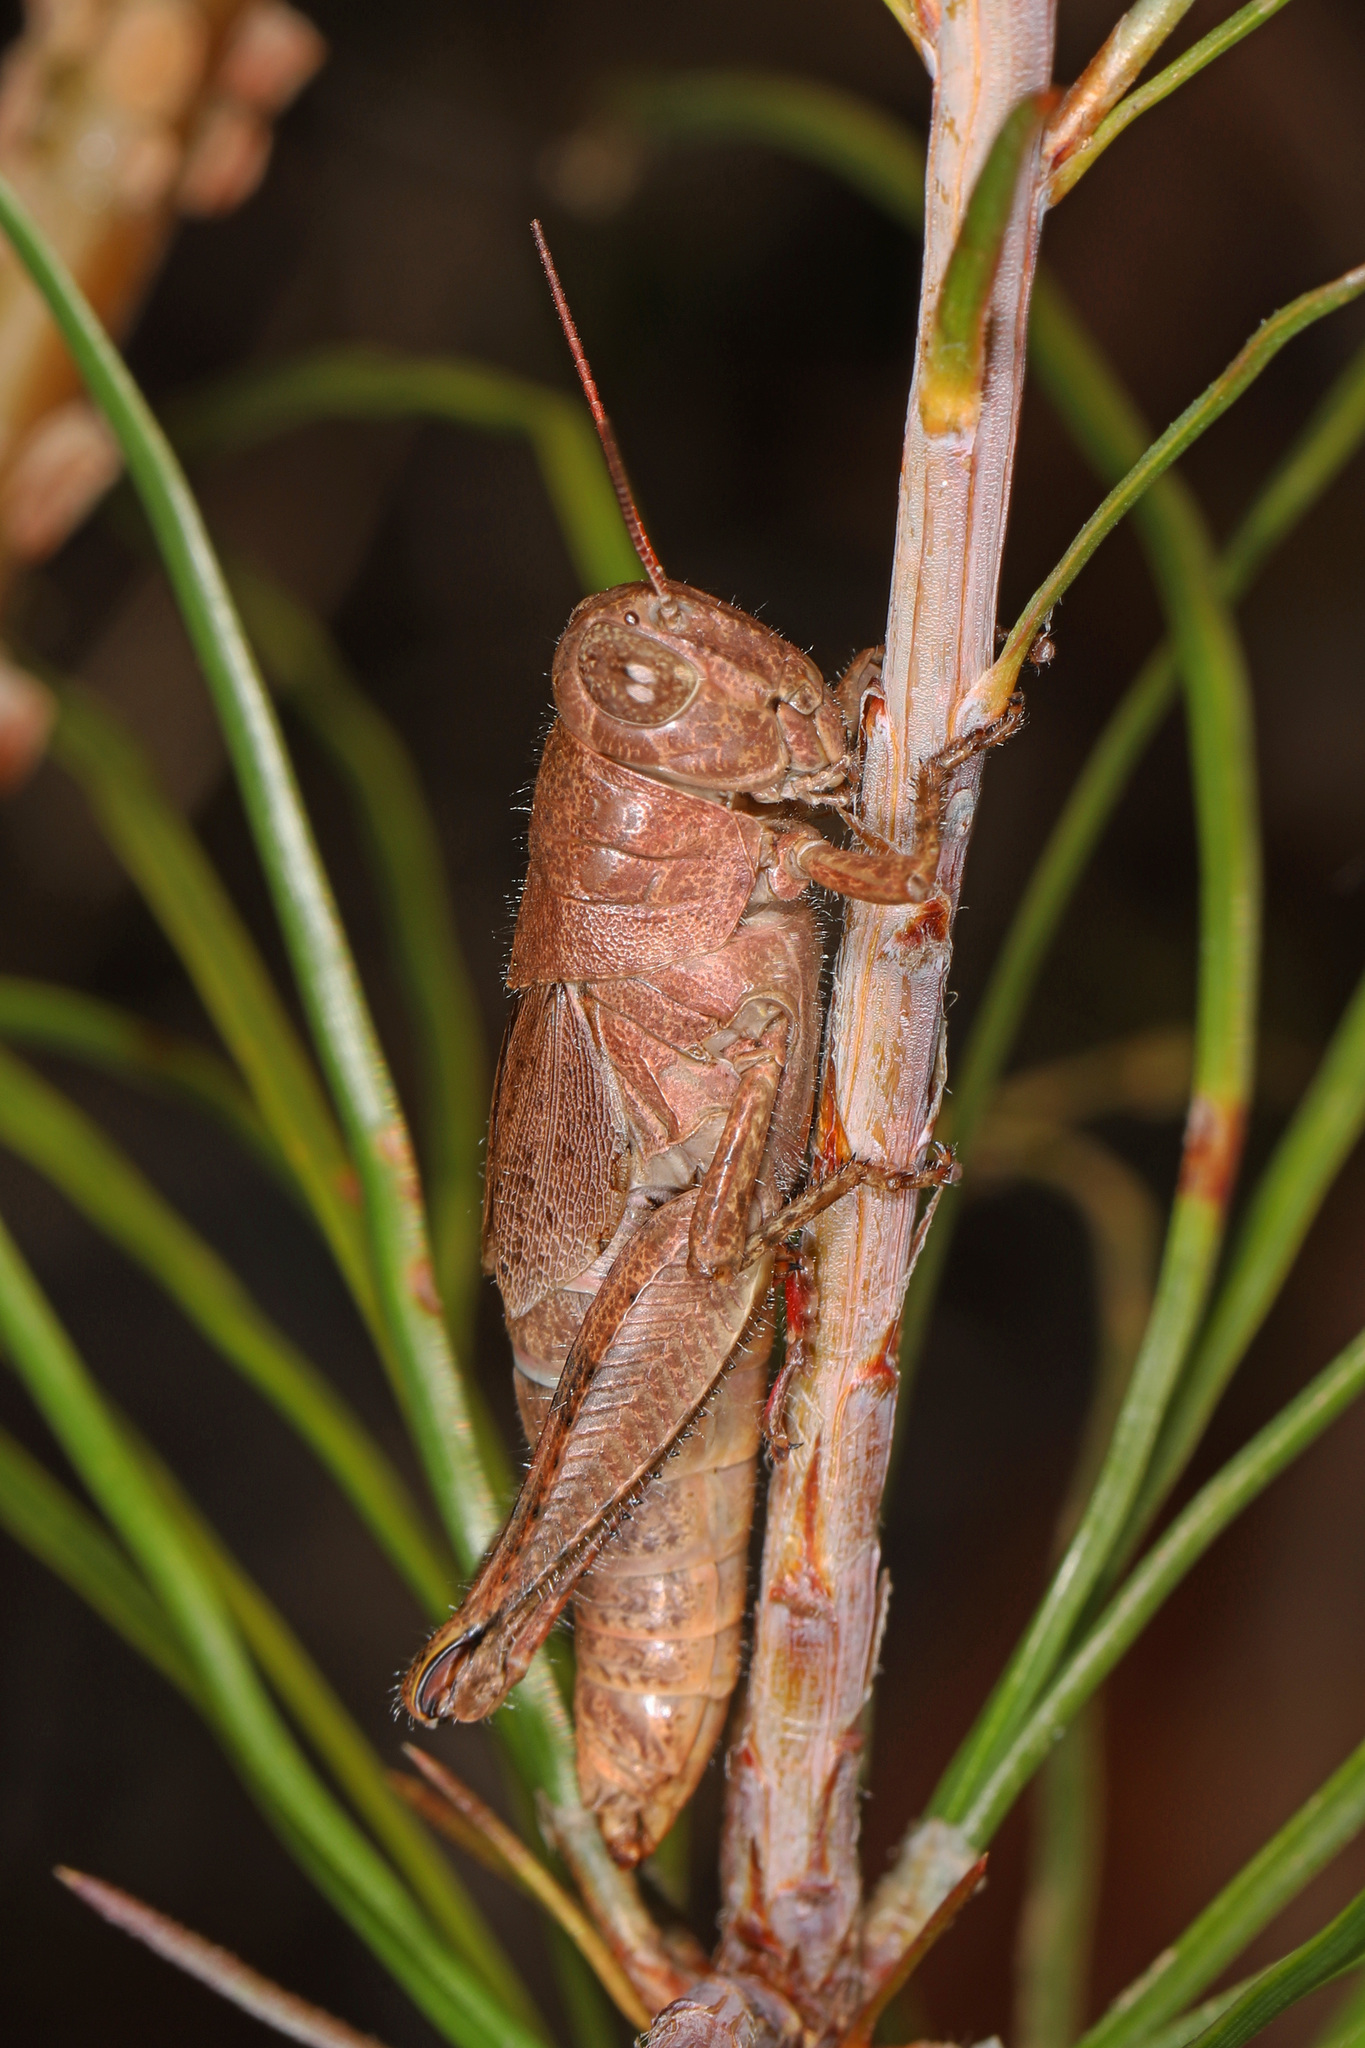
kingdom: Animalia
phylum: Arthropoda
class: Insecta
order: Orthoptera
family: Acrididae
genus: Melanoplus
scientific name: Melanoplus scudderi
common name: Scudder's short-winged locust
